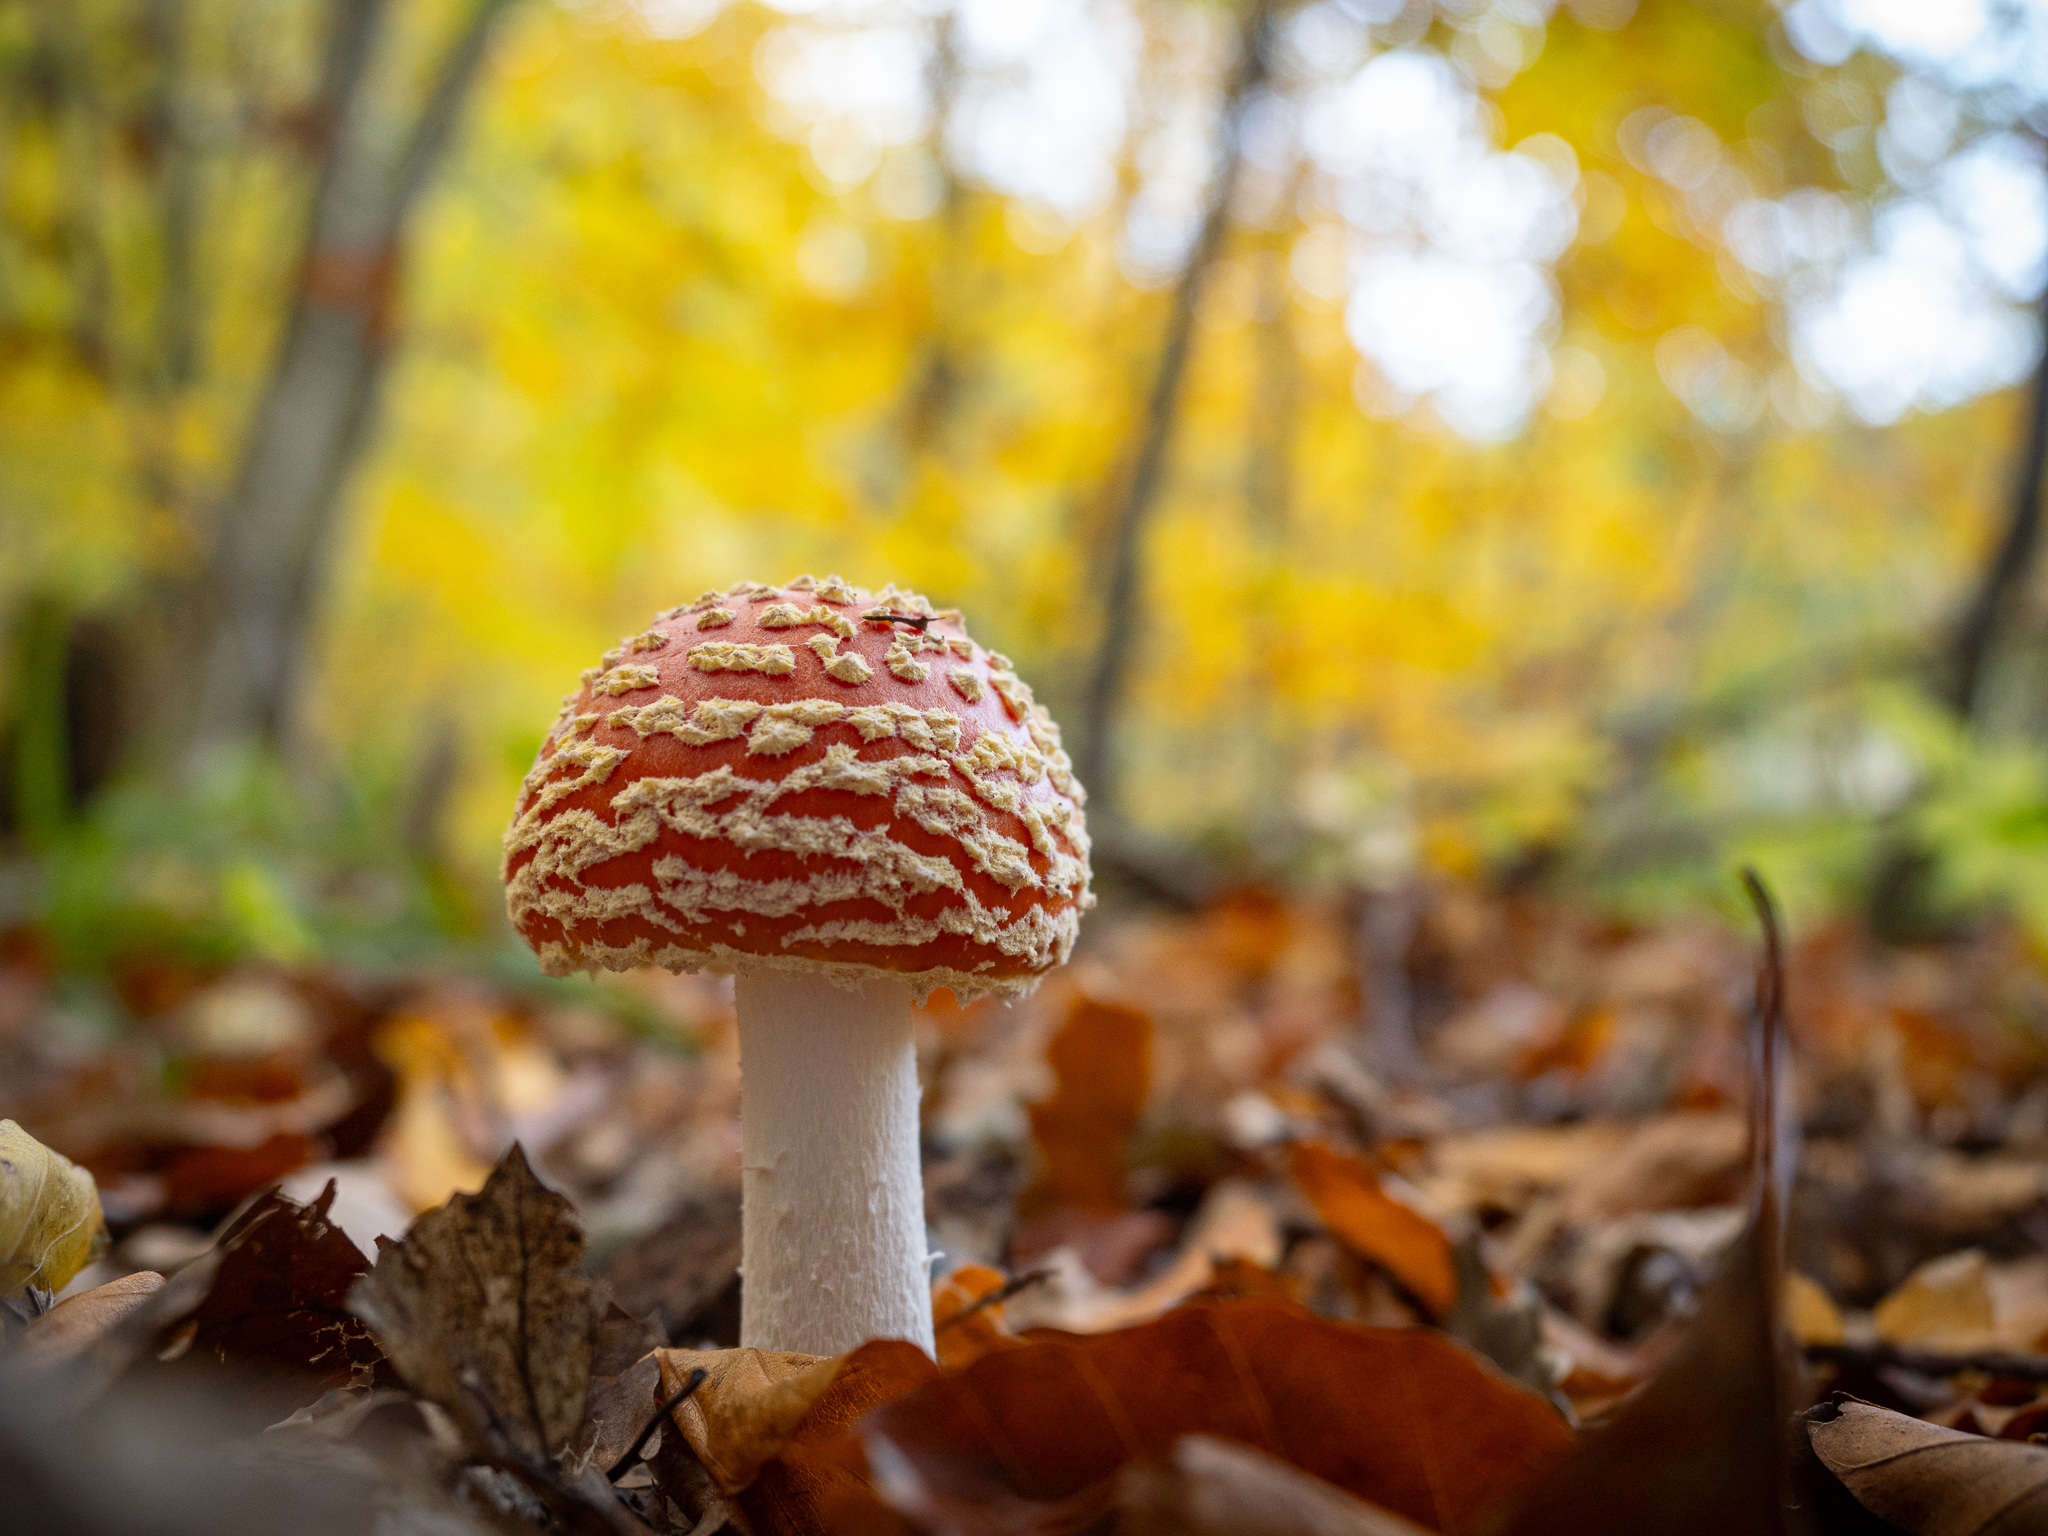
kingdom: Fungi
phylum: Basidiomycota
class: Agaricomycetes
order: Agaricales
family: Amanitaceae
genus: Amanita
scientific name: Amanita muscaria
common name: Fly agaric
